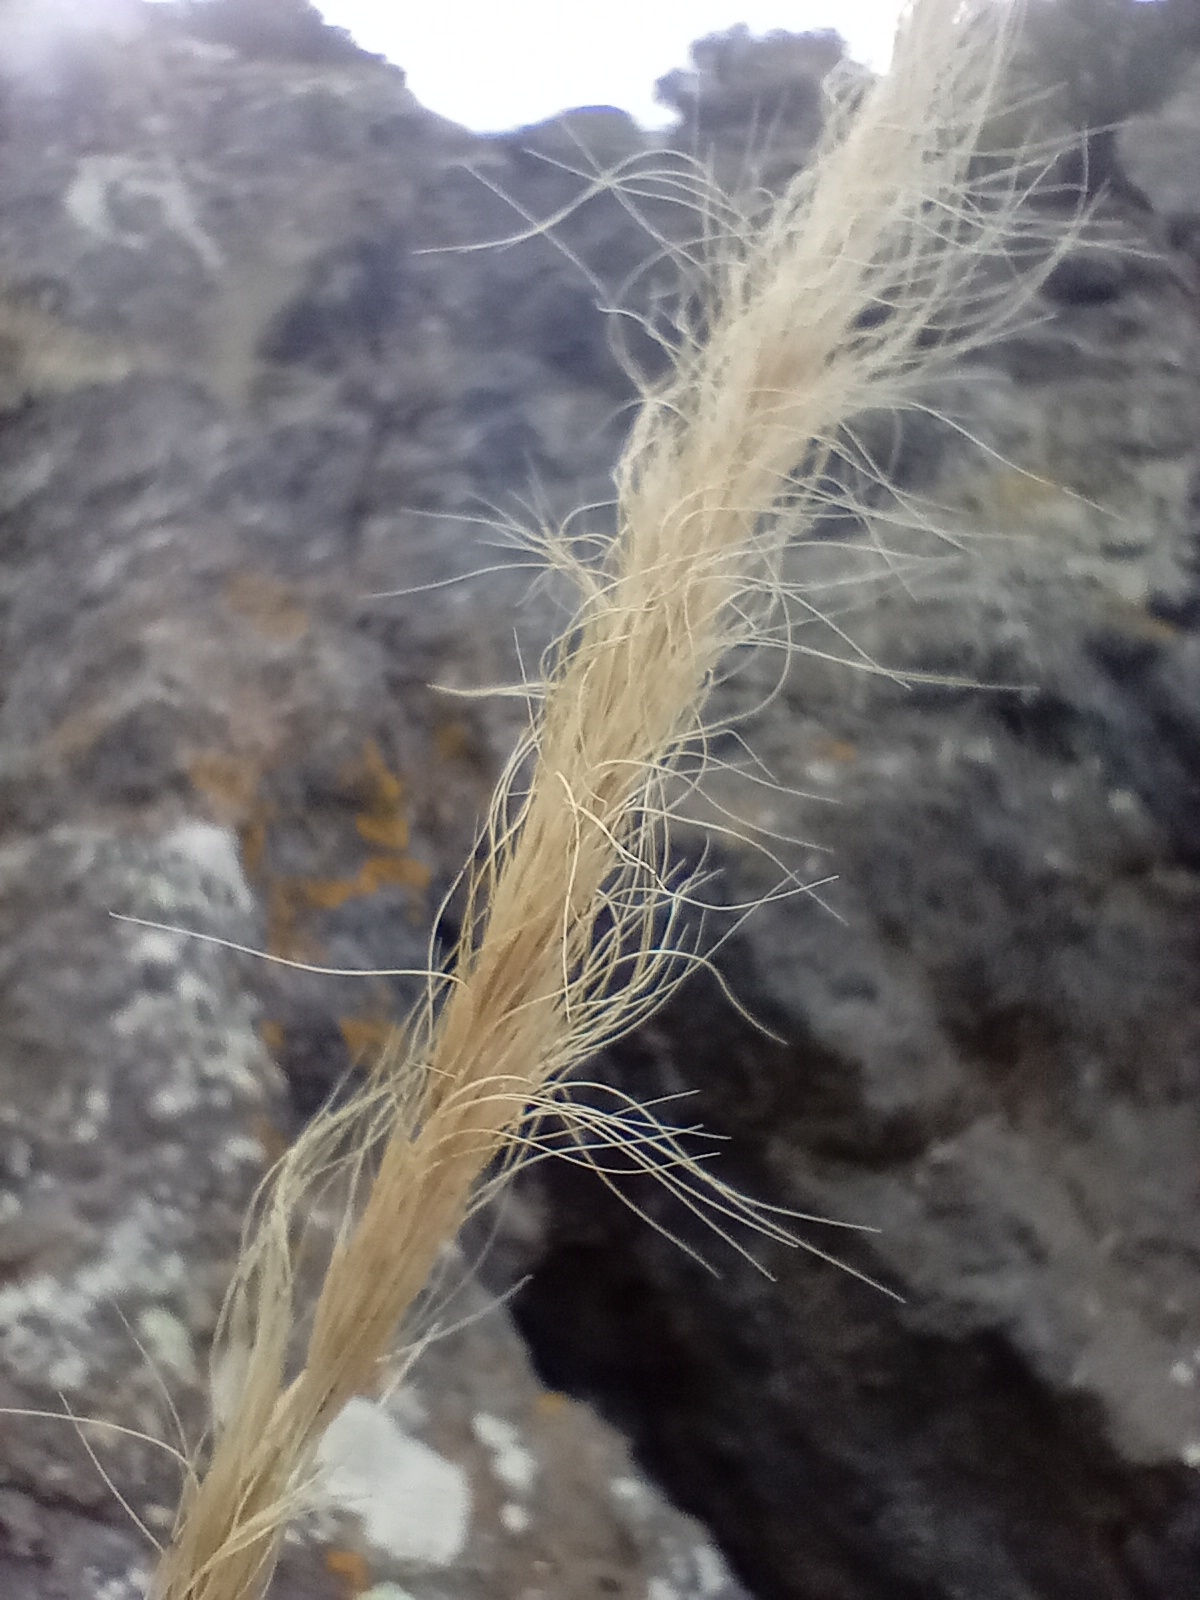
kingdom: Plantae
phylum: Tracheophyta
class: Liliopsida
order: Poales
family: Poaceae
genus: Dichelachne
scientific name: Dichelachne crinita
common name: Clovenfoot plumegrass
